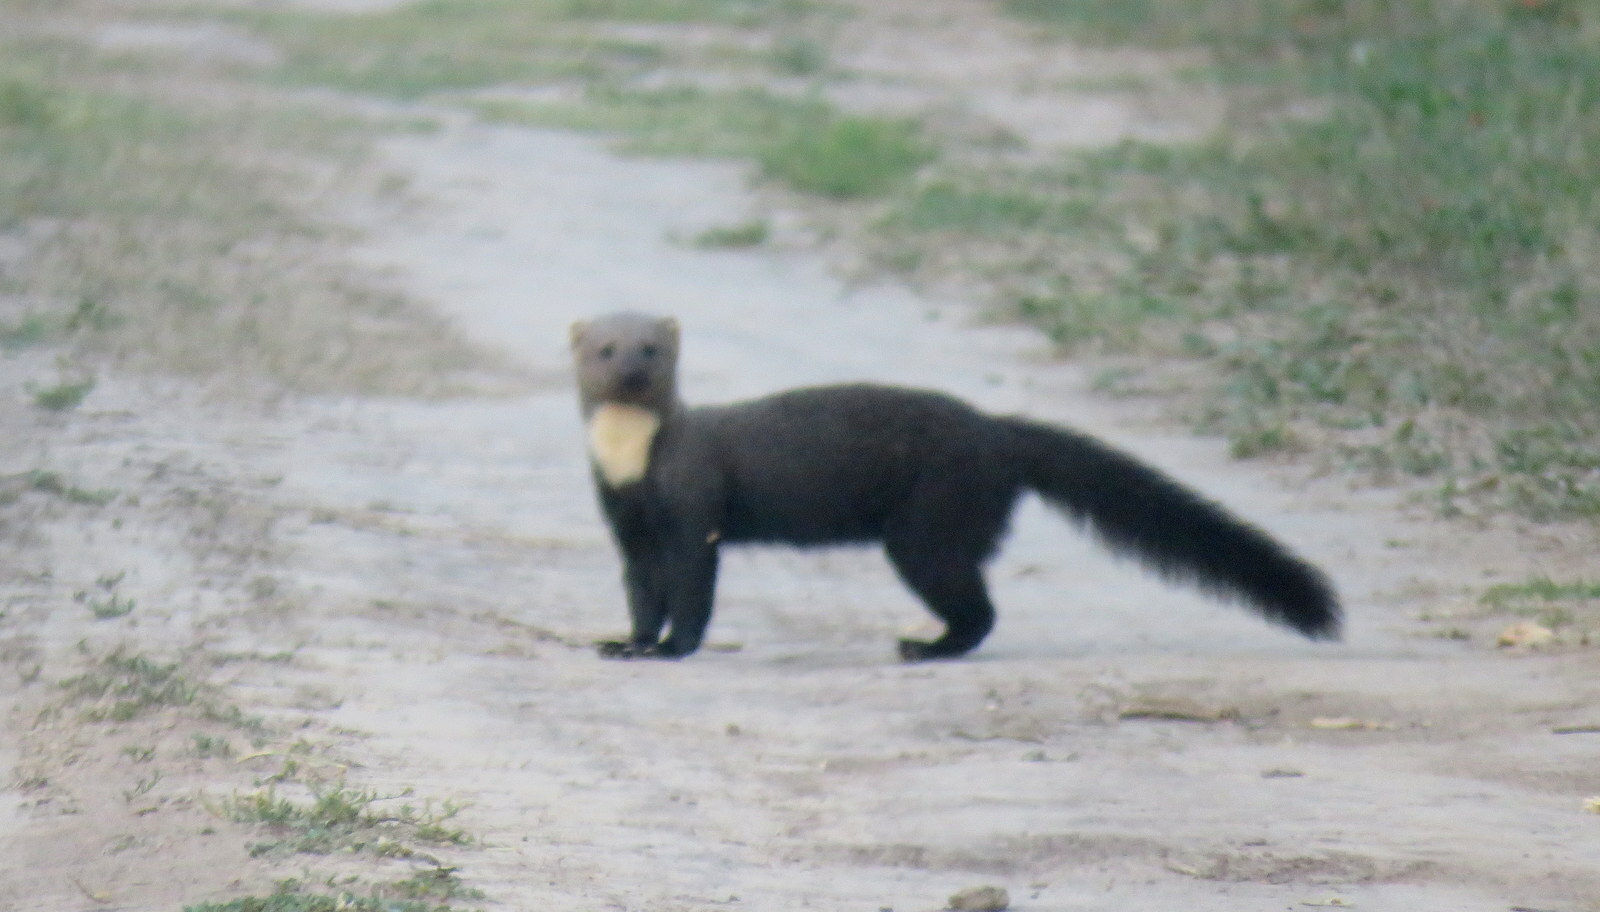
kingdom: Animalia
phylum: Chordata
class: Mammalia
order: Carnivora
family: Mustelidae
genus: Eira
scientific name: Eira barbara
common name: Tayra
